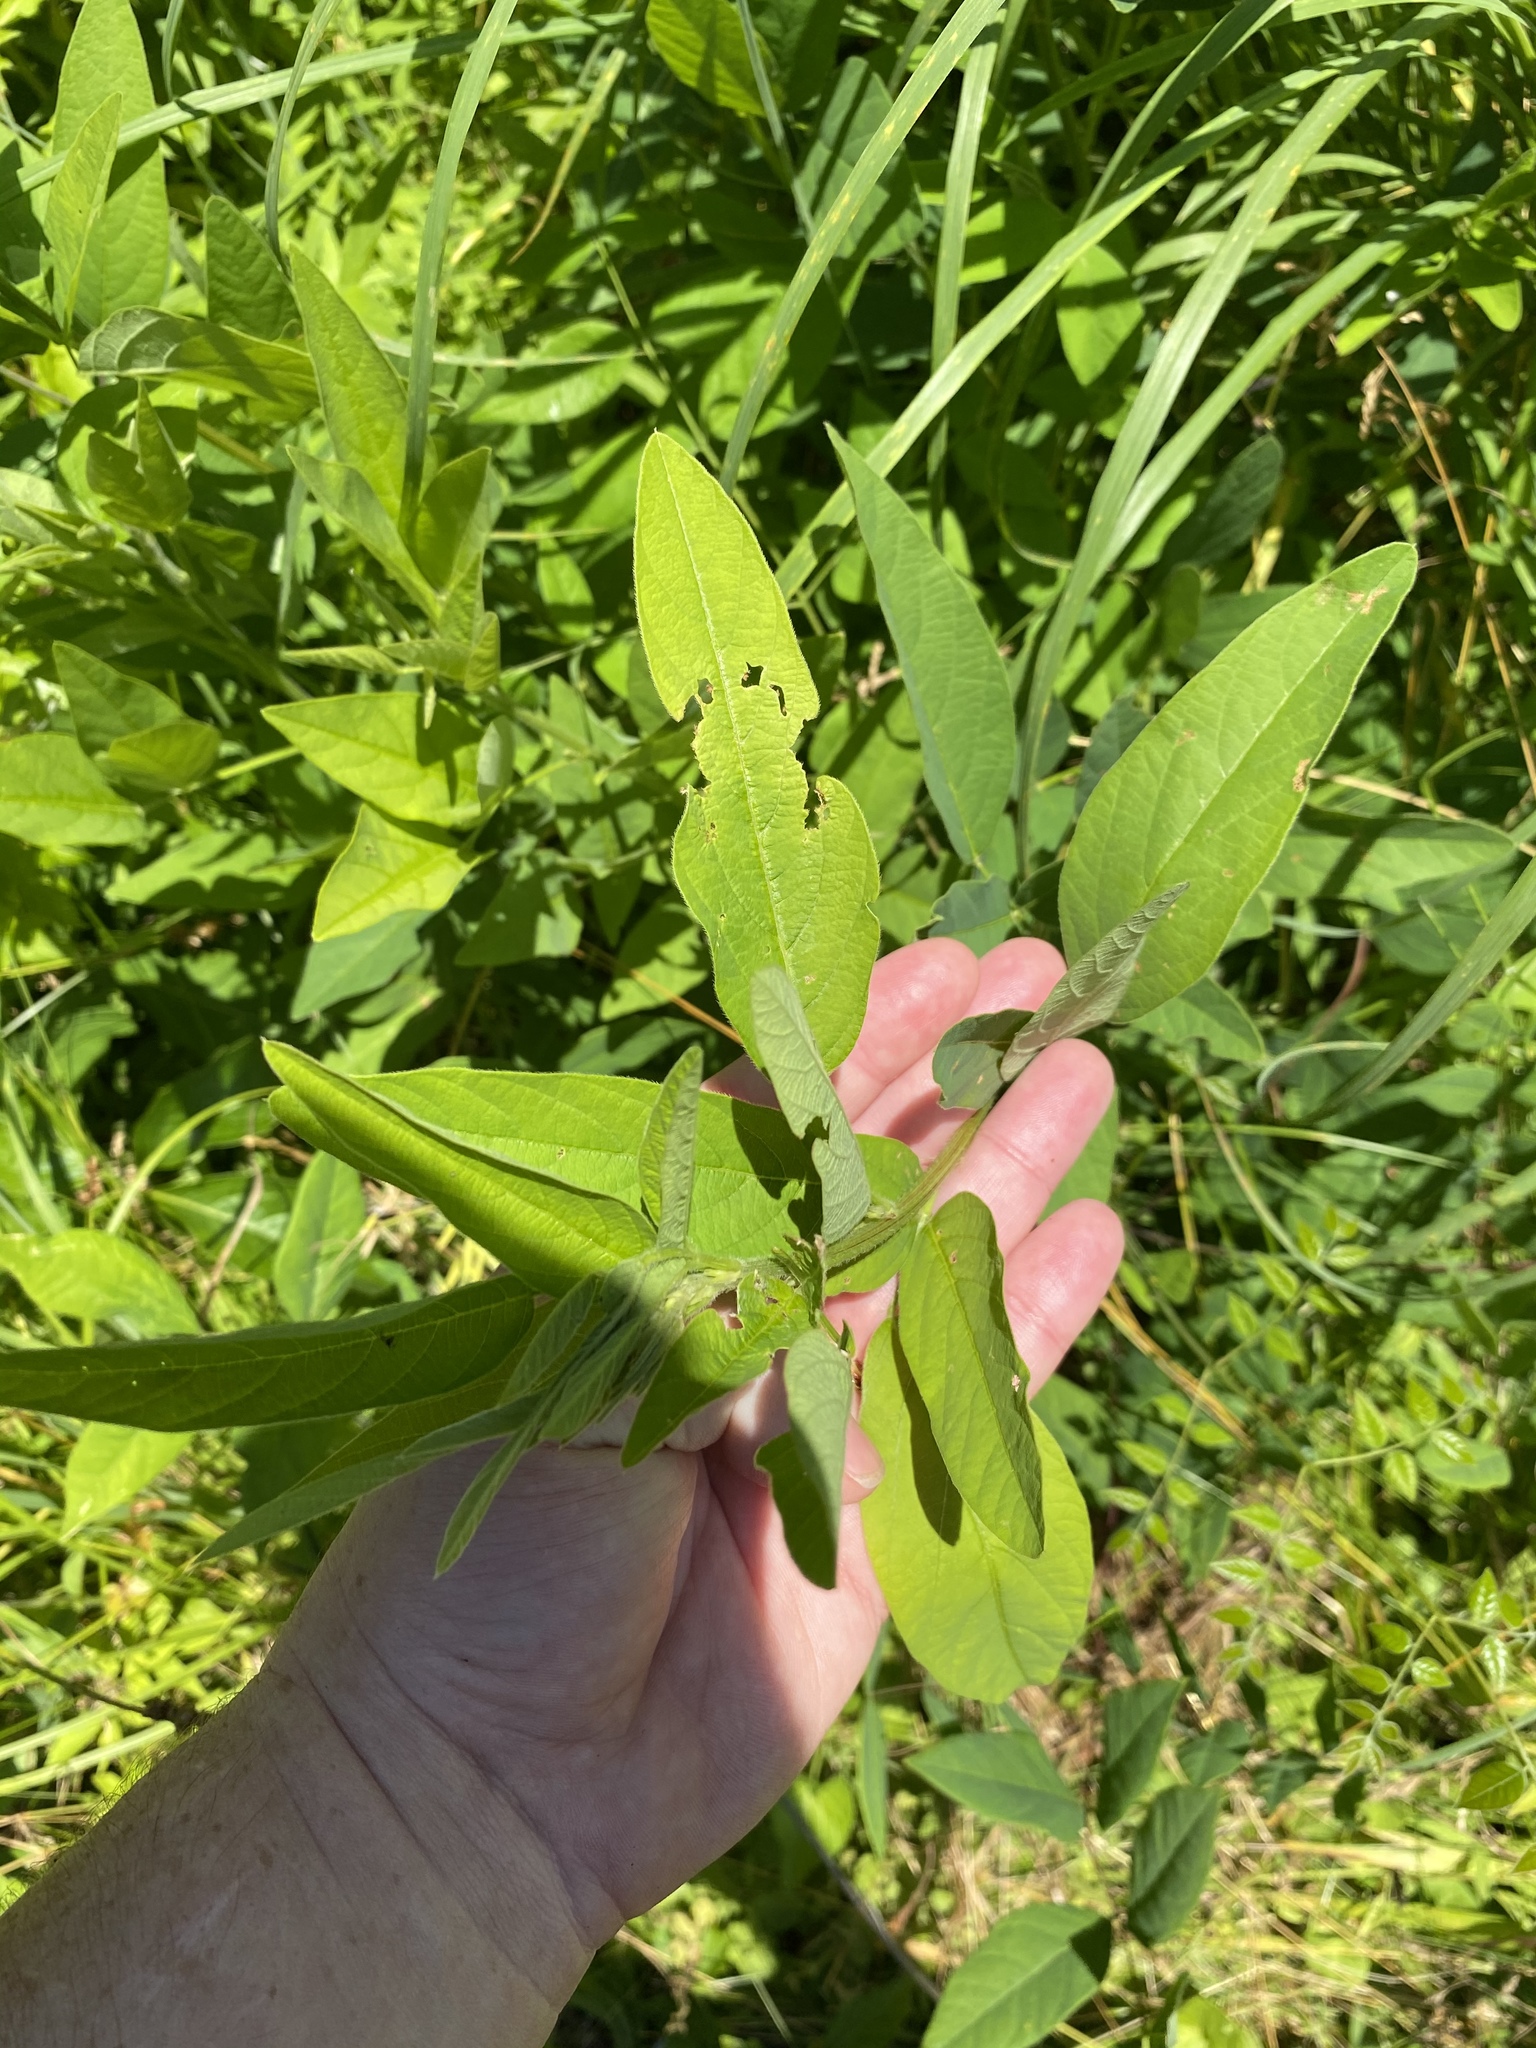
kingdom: Plantae
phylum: Tracheophyta
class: Magnoliopsida
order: Fabales
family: Fabaceae
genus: Desmodium
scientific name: Desmodium canadense
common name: Canada tick-trefoil
